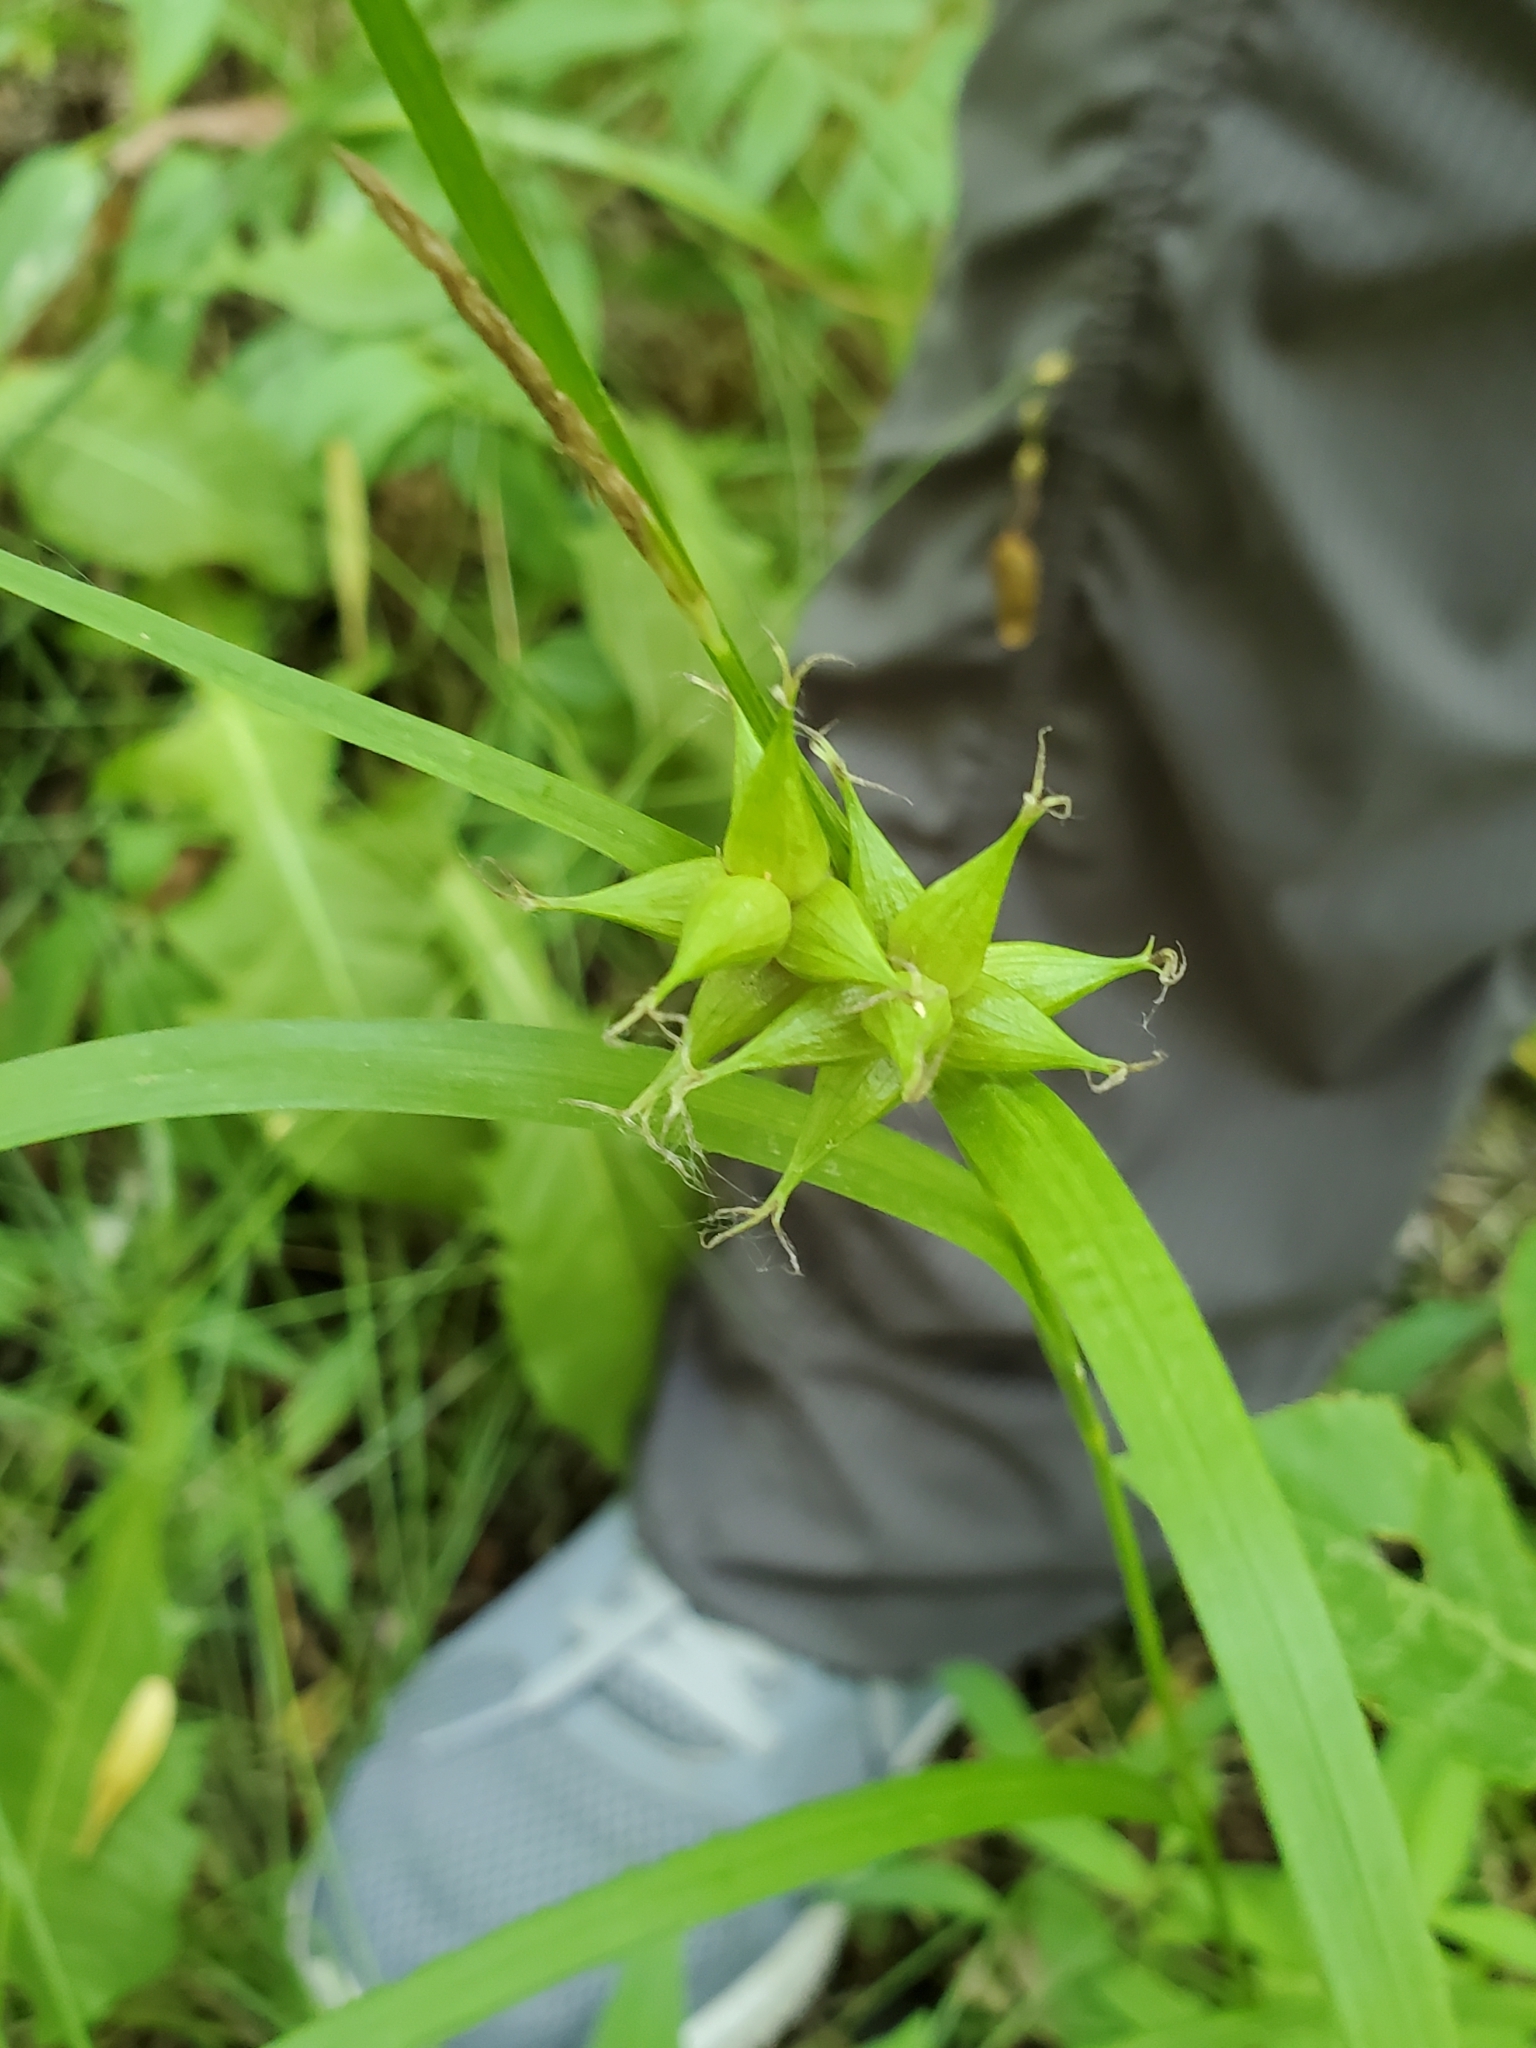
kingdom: Plantae
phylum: Tracheophyta
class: Liliopsida
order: Poales
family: Cyperaceae
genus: Carex
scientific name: Carex intumescens
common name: Greater bladder sedge
